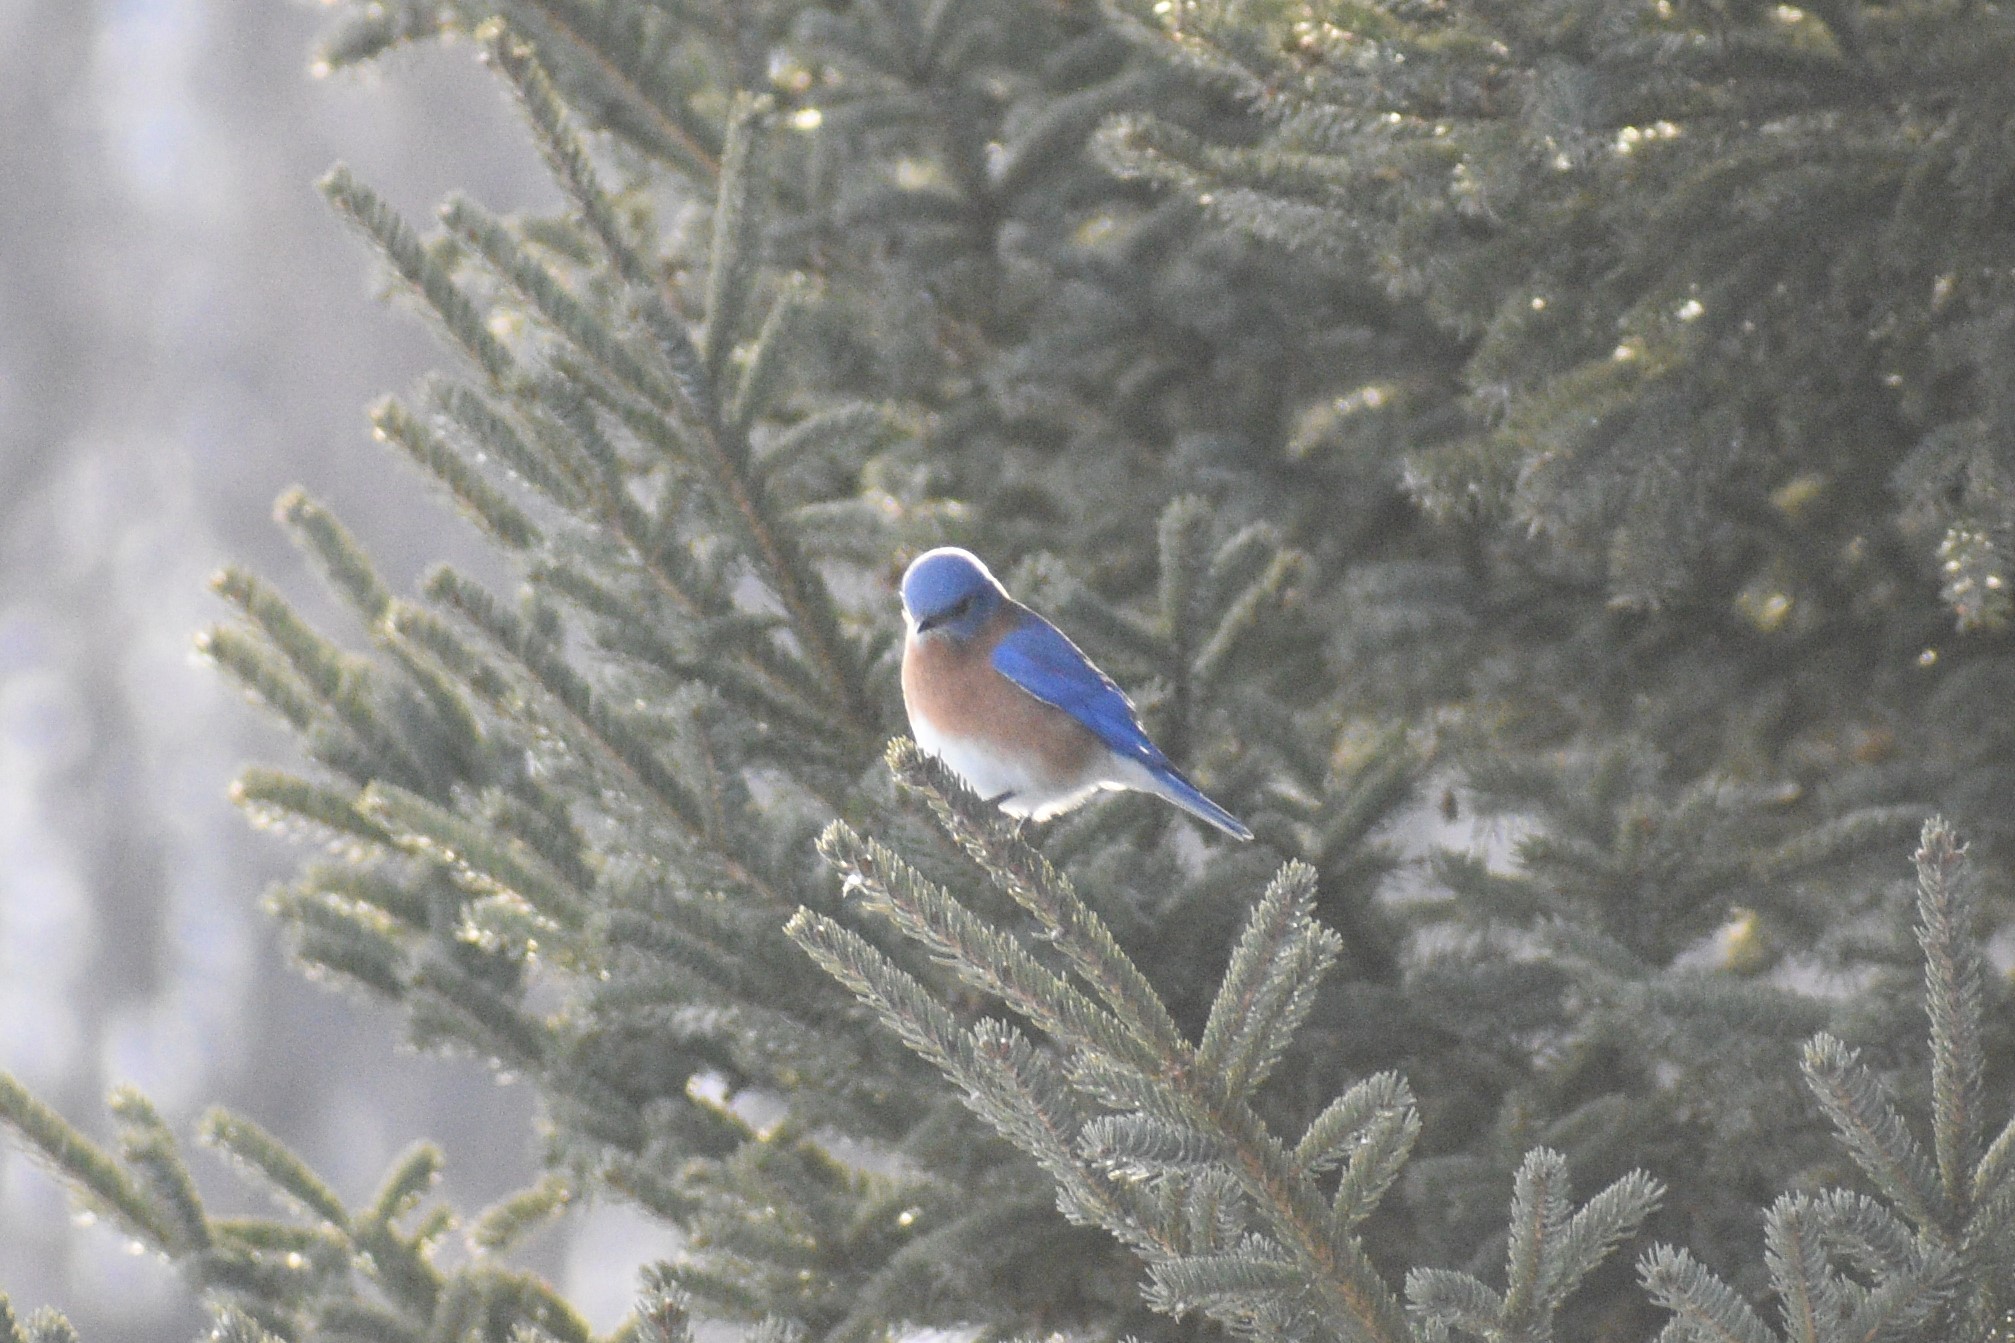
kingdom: Animalia
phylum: Chordata
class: Aves
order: Passeriformes
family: Turdidae
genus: Sialia
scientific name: Sialia sialis
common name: Eastern bluebird
